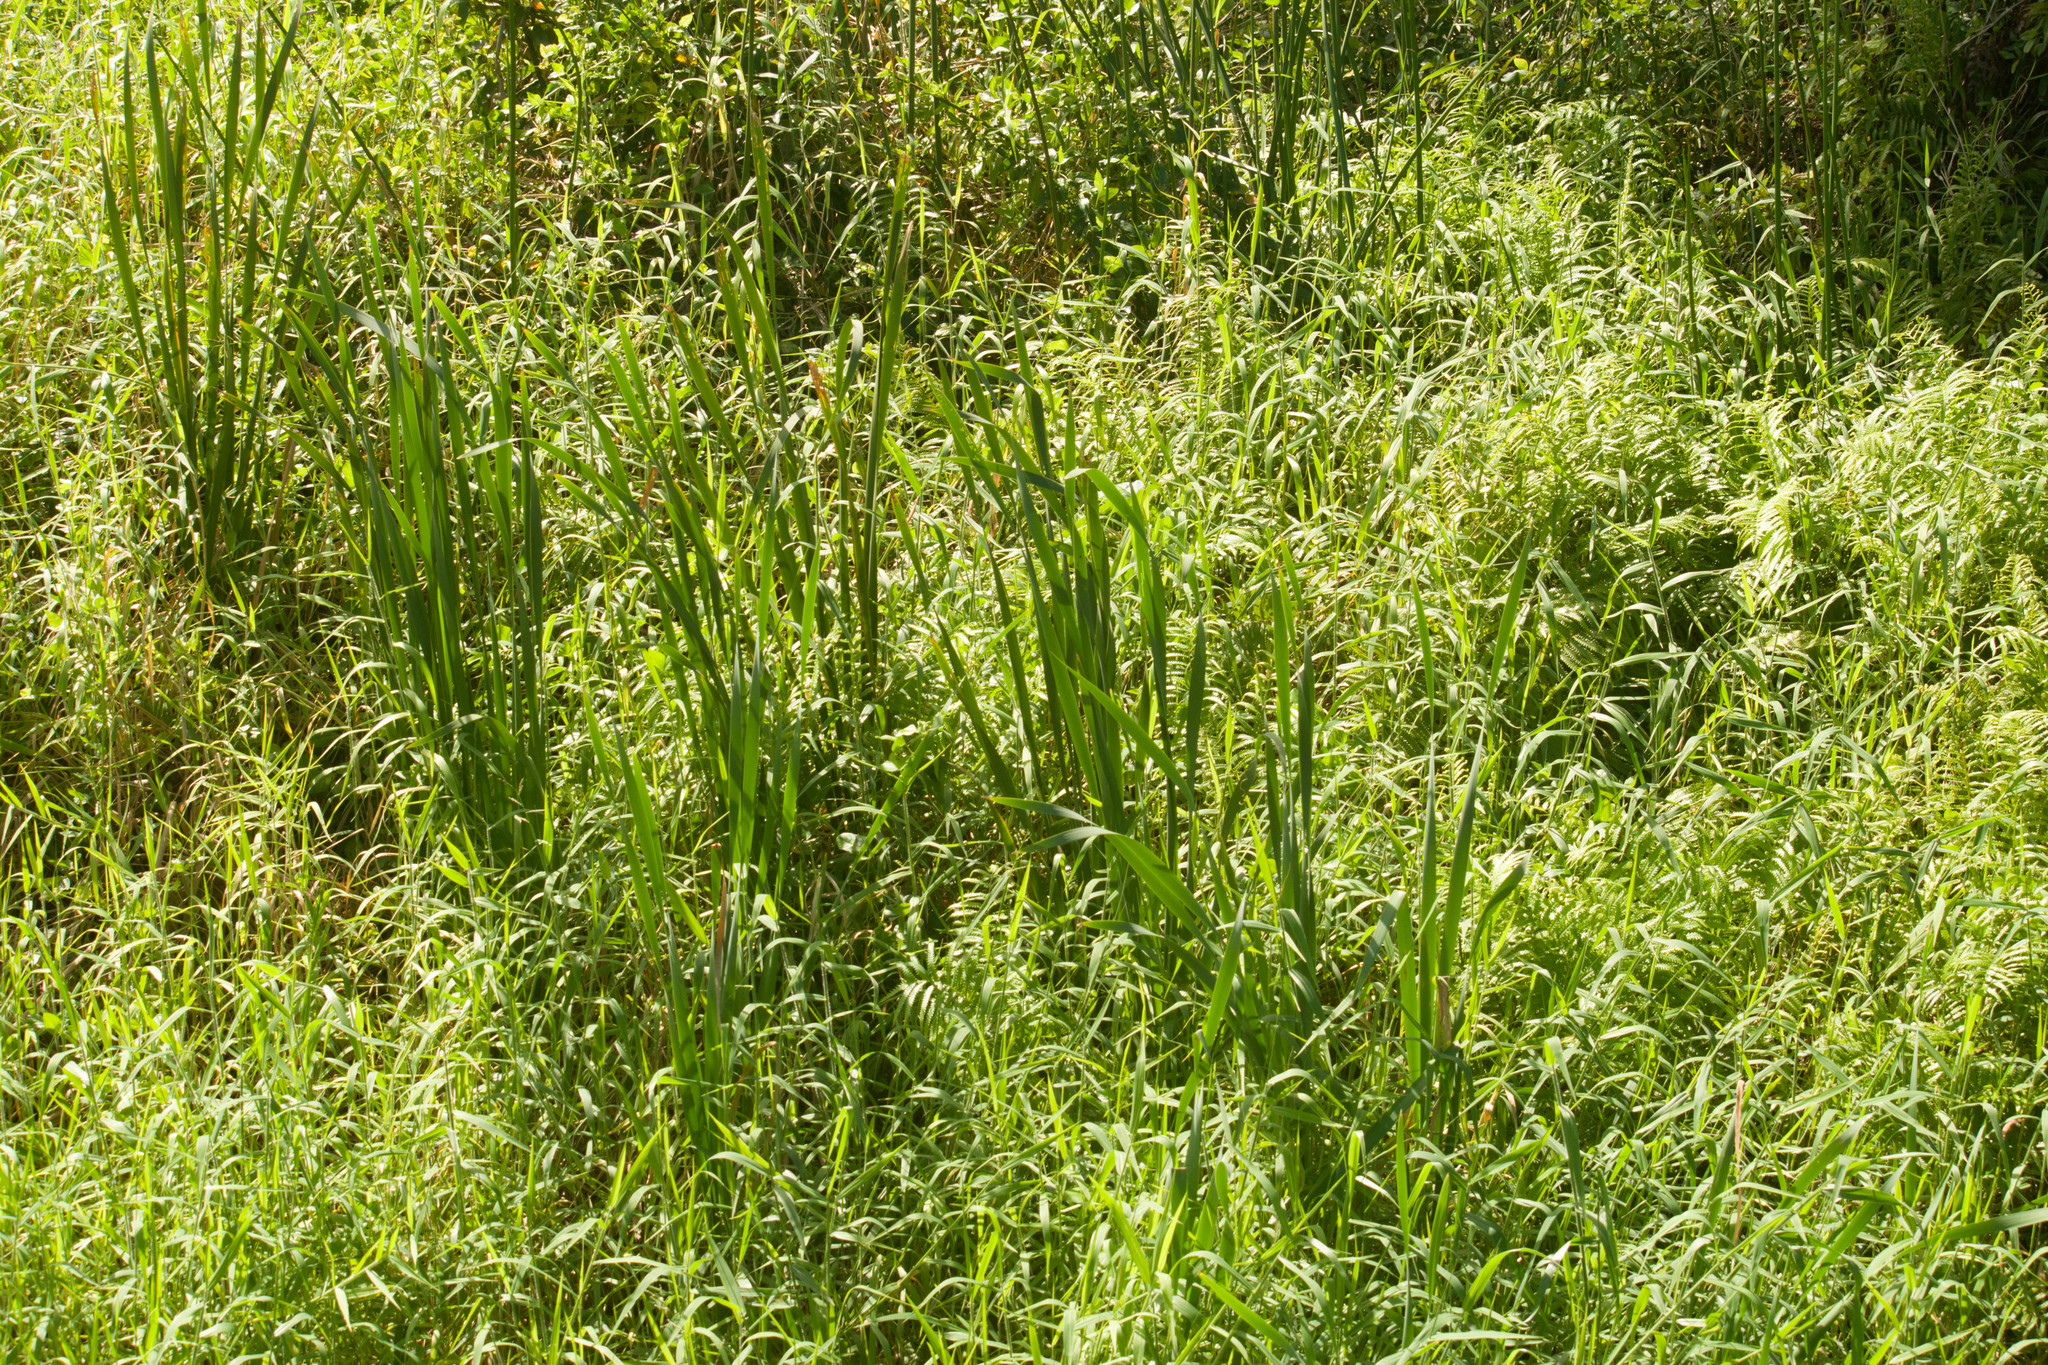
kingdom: Plantae
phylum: Tracheophyta
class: Liliopsida
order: Poales
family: Typhaceae
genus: Typha
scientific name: Typha latifolia
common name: Broadleaf cattail
